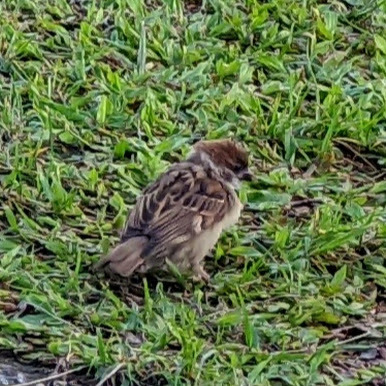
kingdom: Animalia
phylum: Chordata
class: Aves
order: Passeriformes
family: Passeridae
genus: Passer
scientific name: Passer montanus
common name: Eurasian tree sparrow
